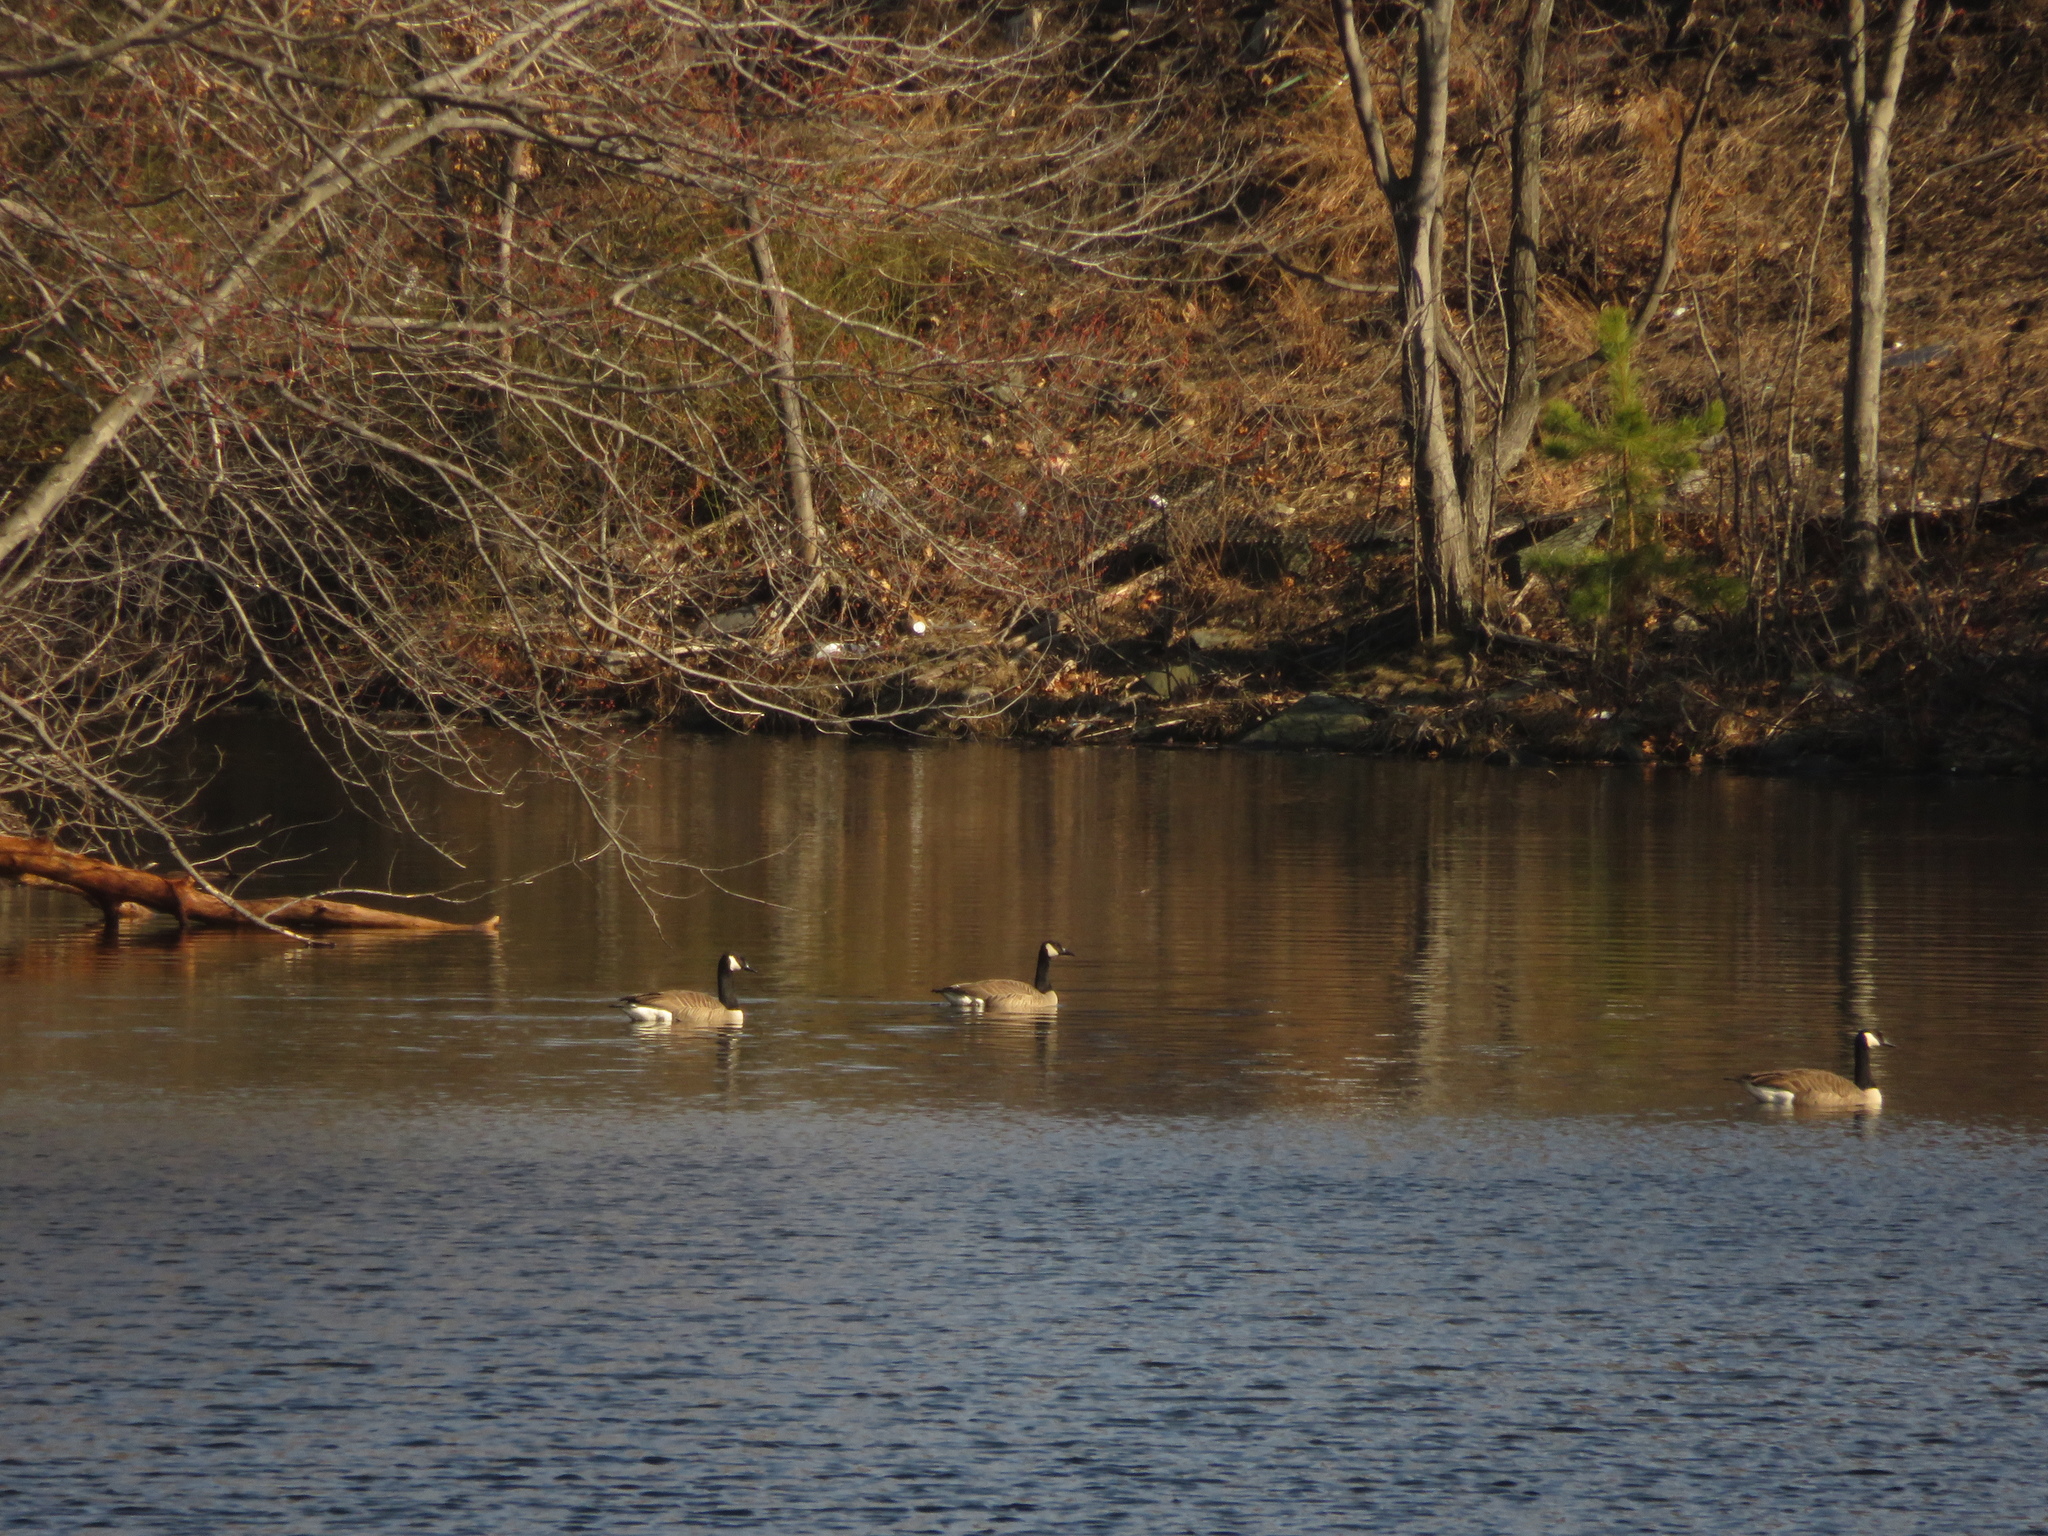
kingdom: Animalia
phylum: Chordata
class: Aves
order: Anseriformes
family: Anatidae
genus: Branta
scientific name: Branta canadensis
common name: Canada goose
